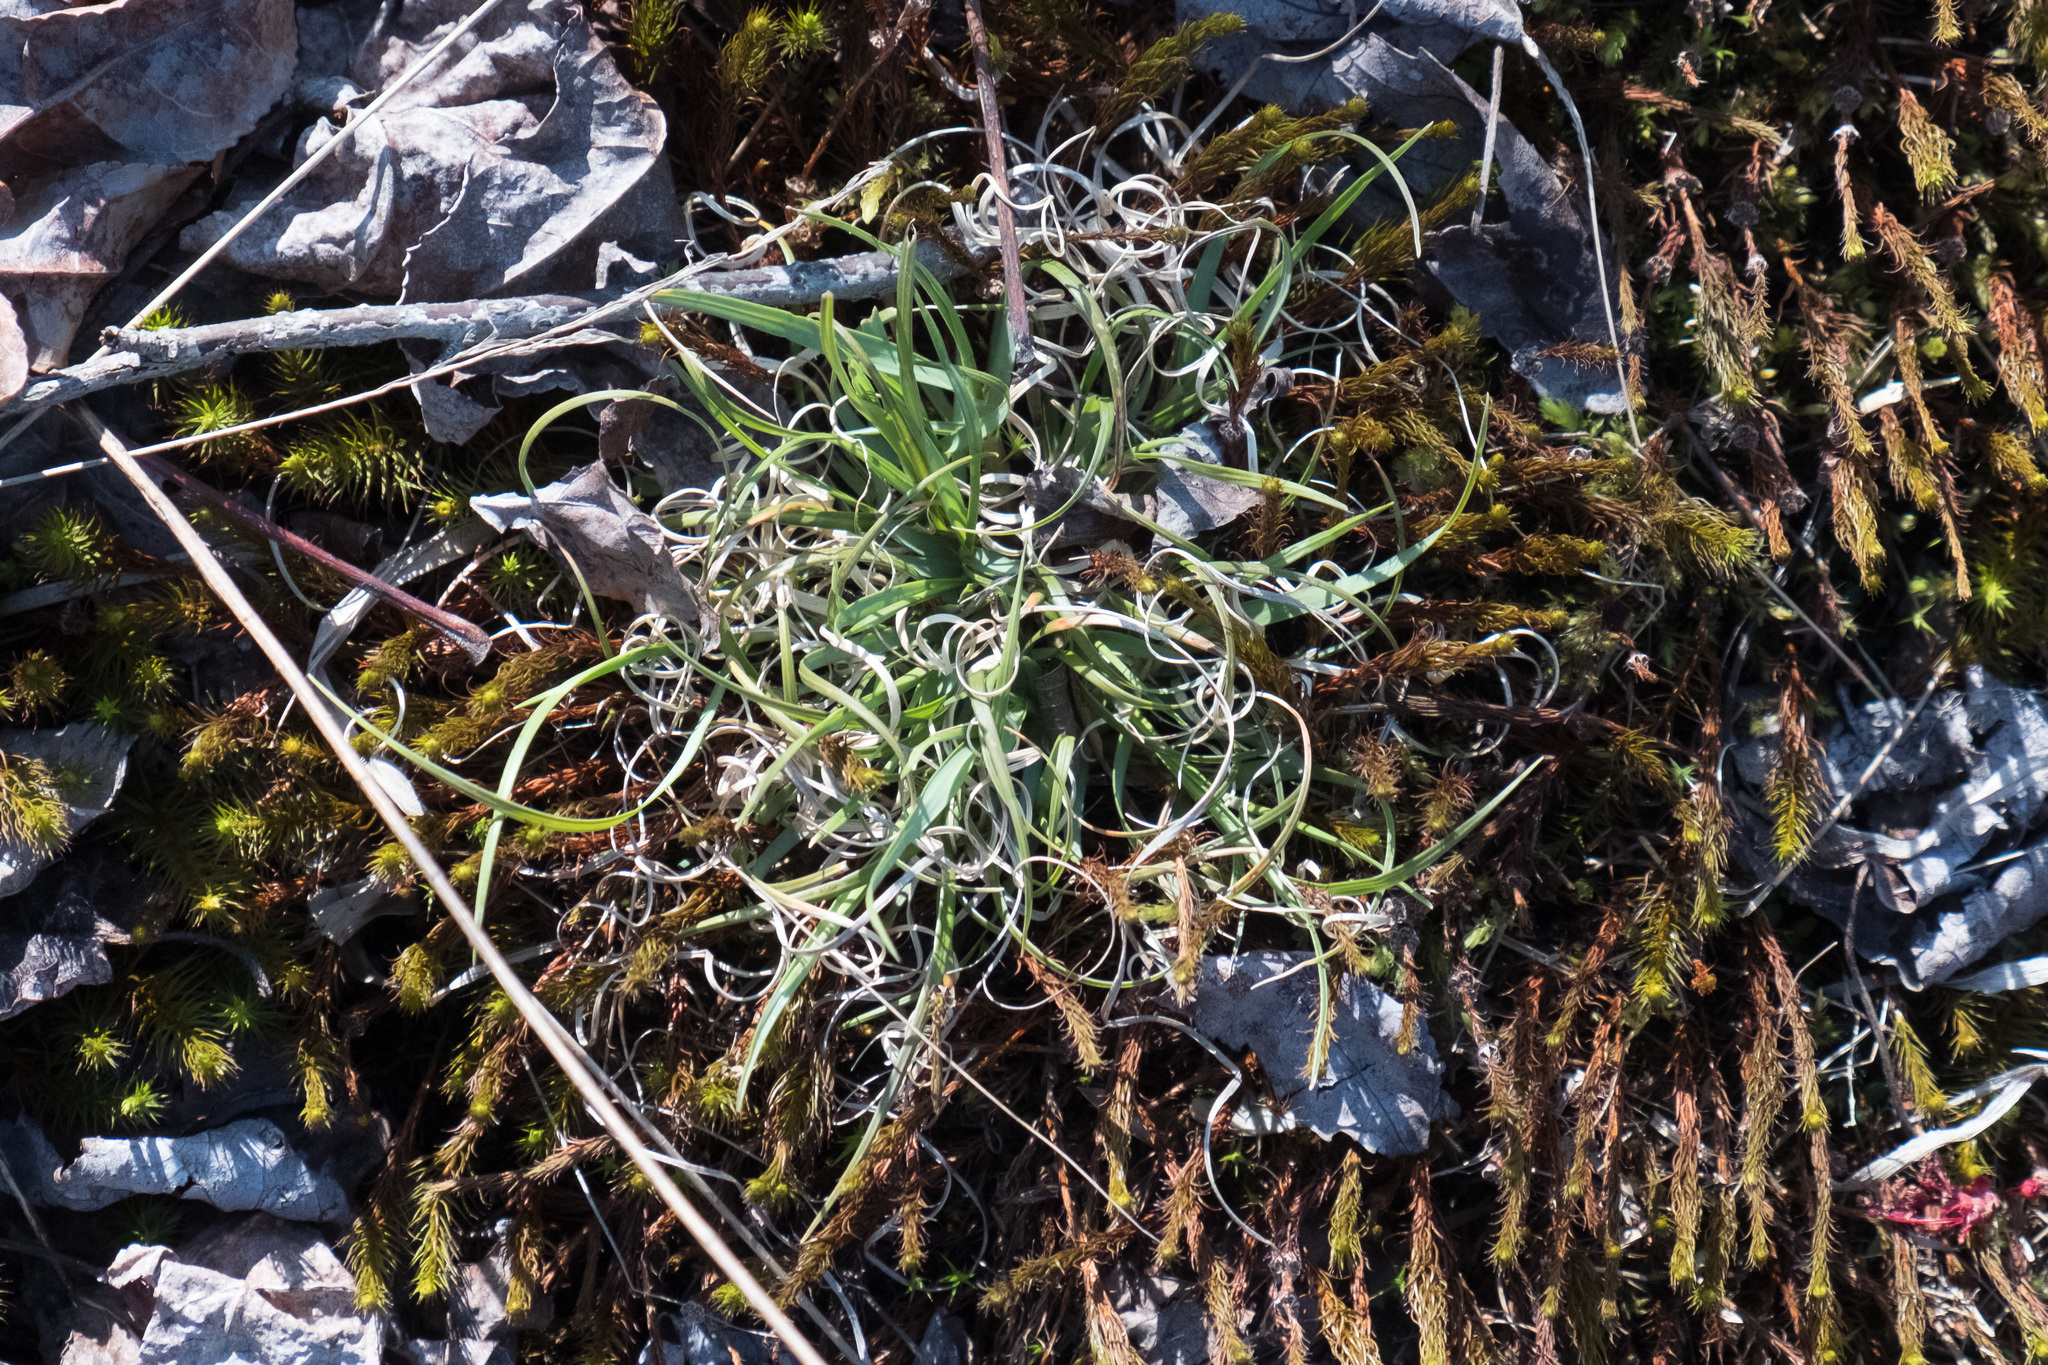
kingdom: Plantae
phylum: Tracheophyta
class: Liliopsida
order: Poales
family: Poaceae
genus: Danthonia
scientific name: Danthonia spicata
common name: Common wild oatgrass
